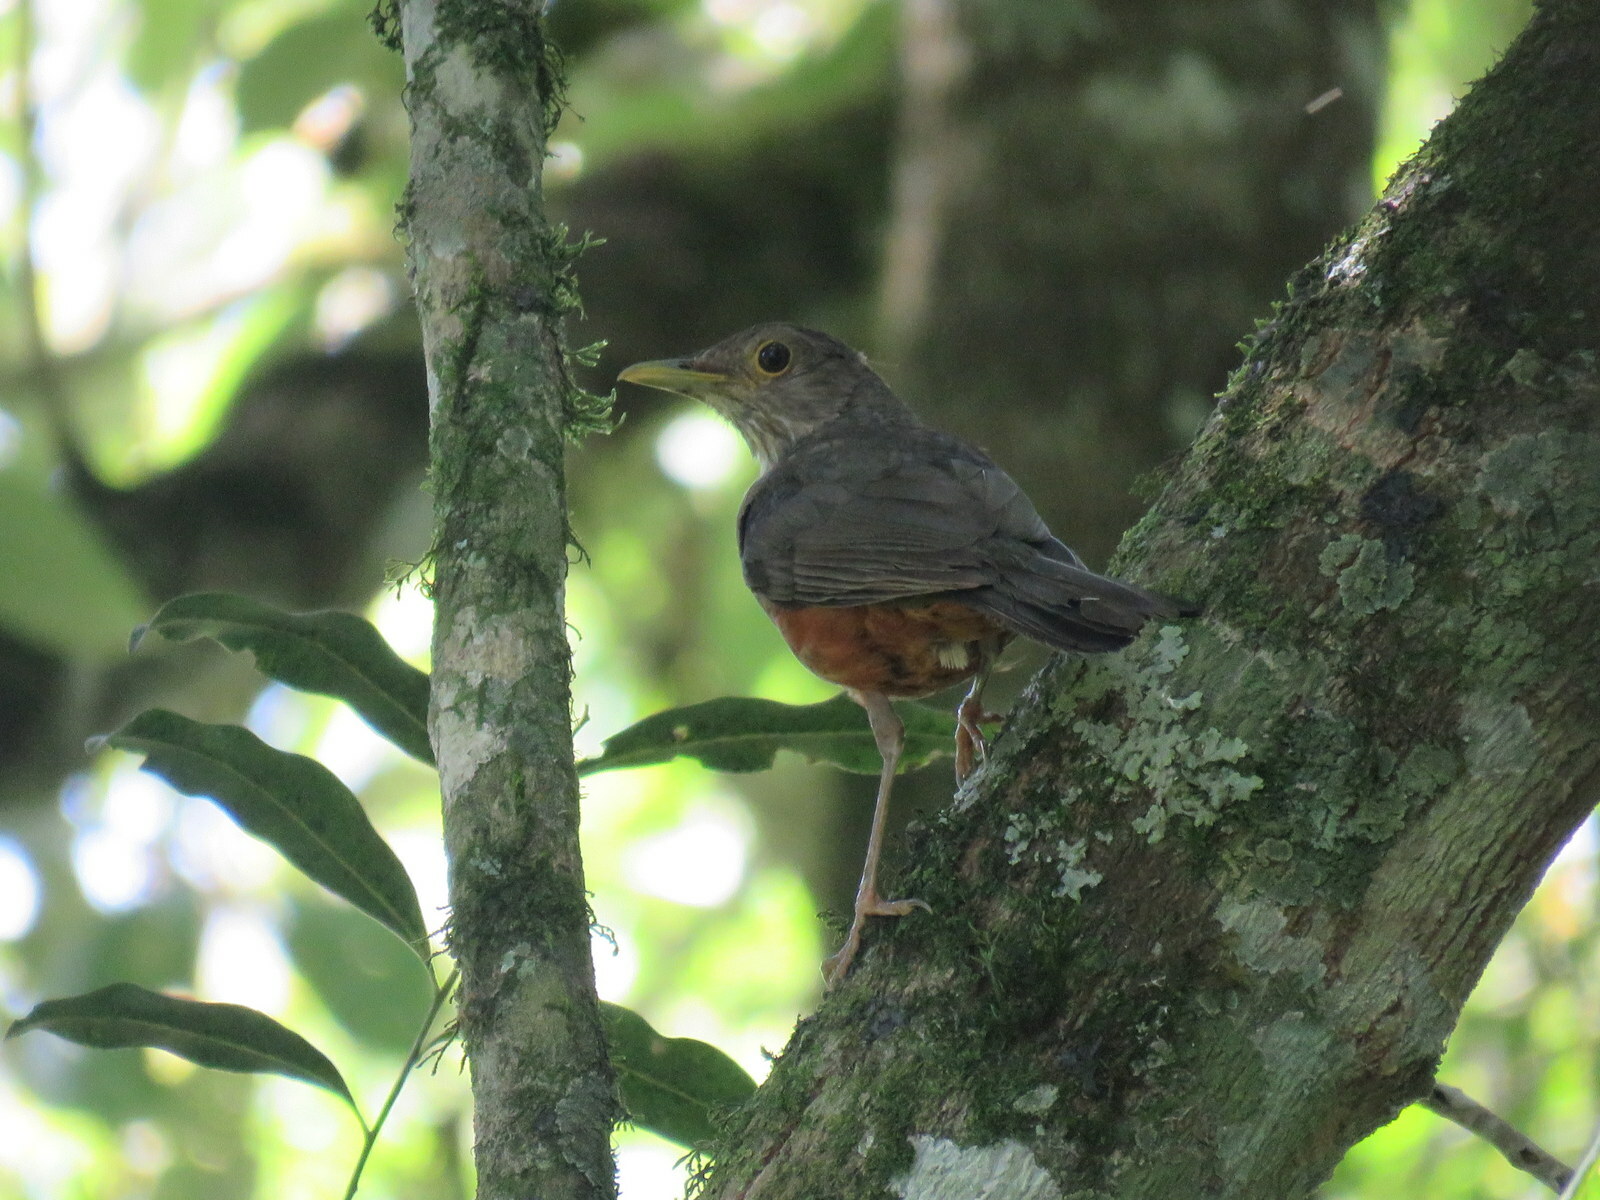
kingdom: Animalia
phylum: Chordata
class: Aves
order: Passeriformes
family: Turdidae
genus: Turdus
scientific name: Turdus rufiventris
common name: Rufous-bellied thrush
